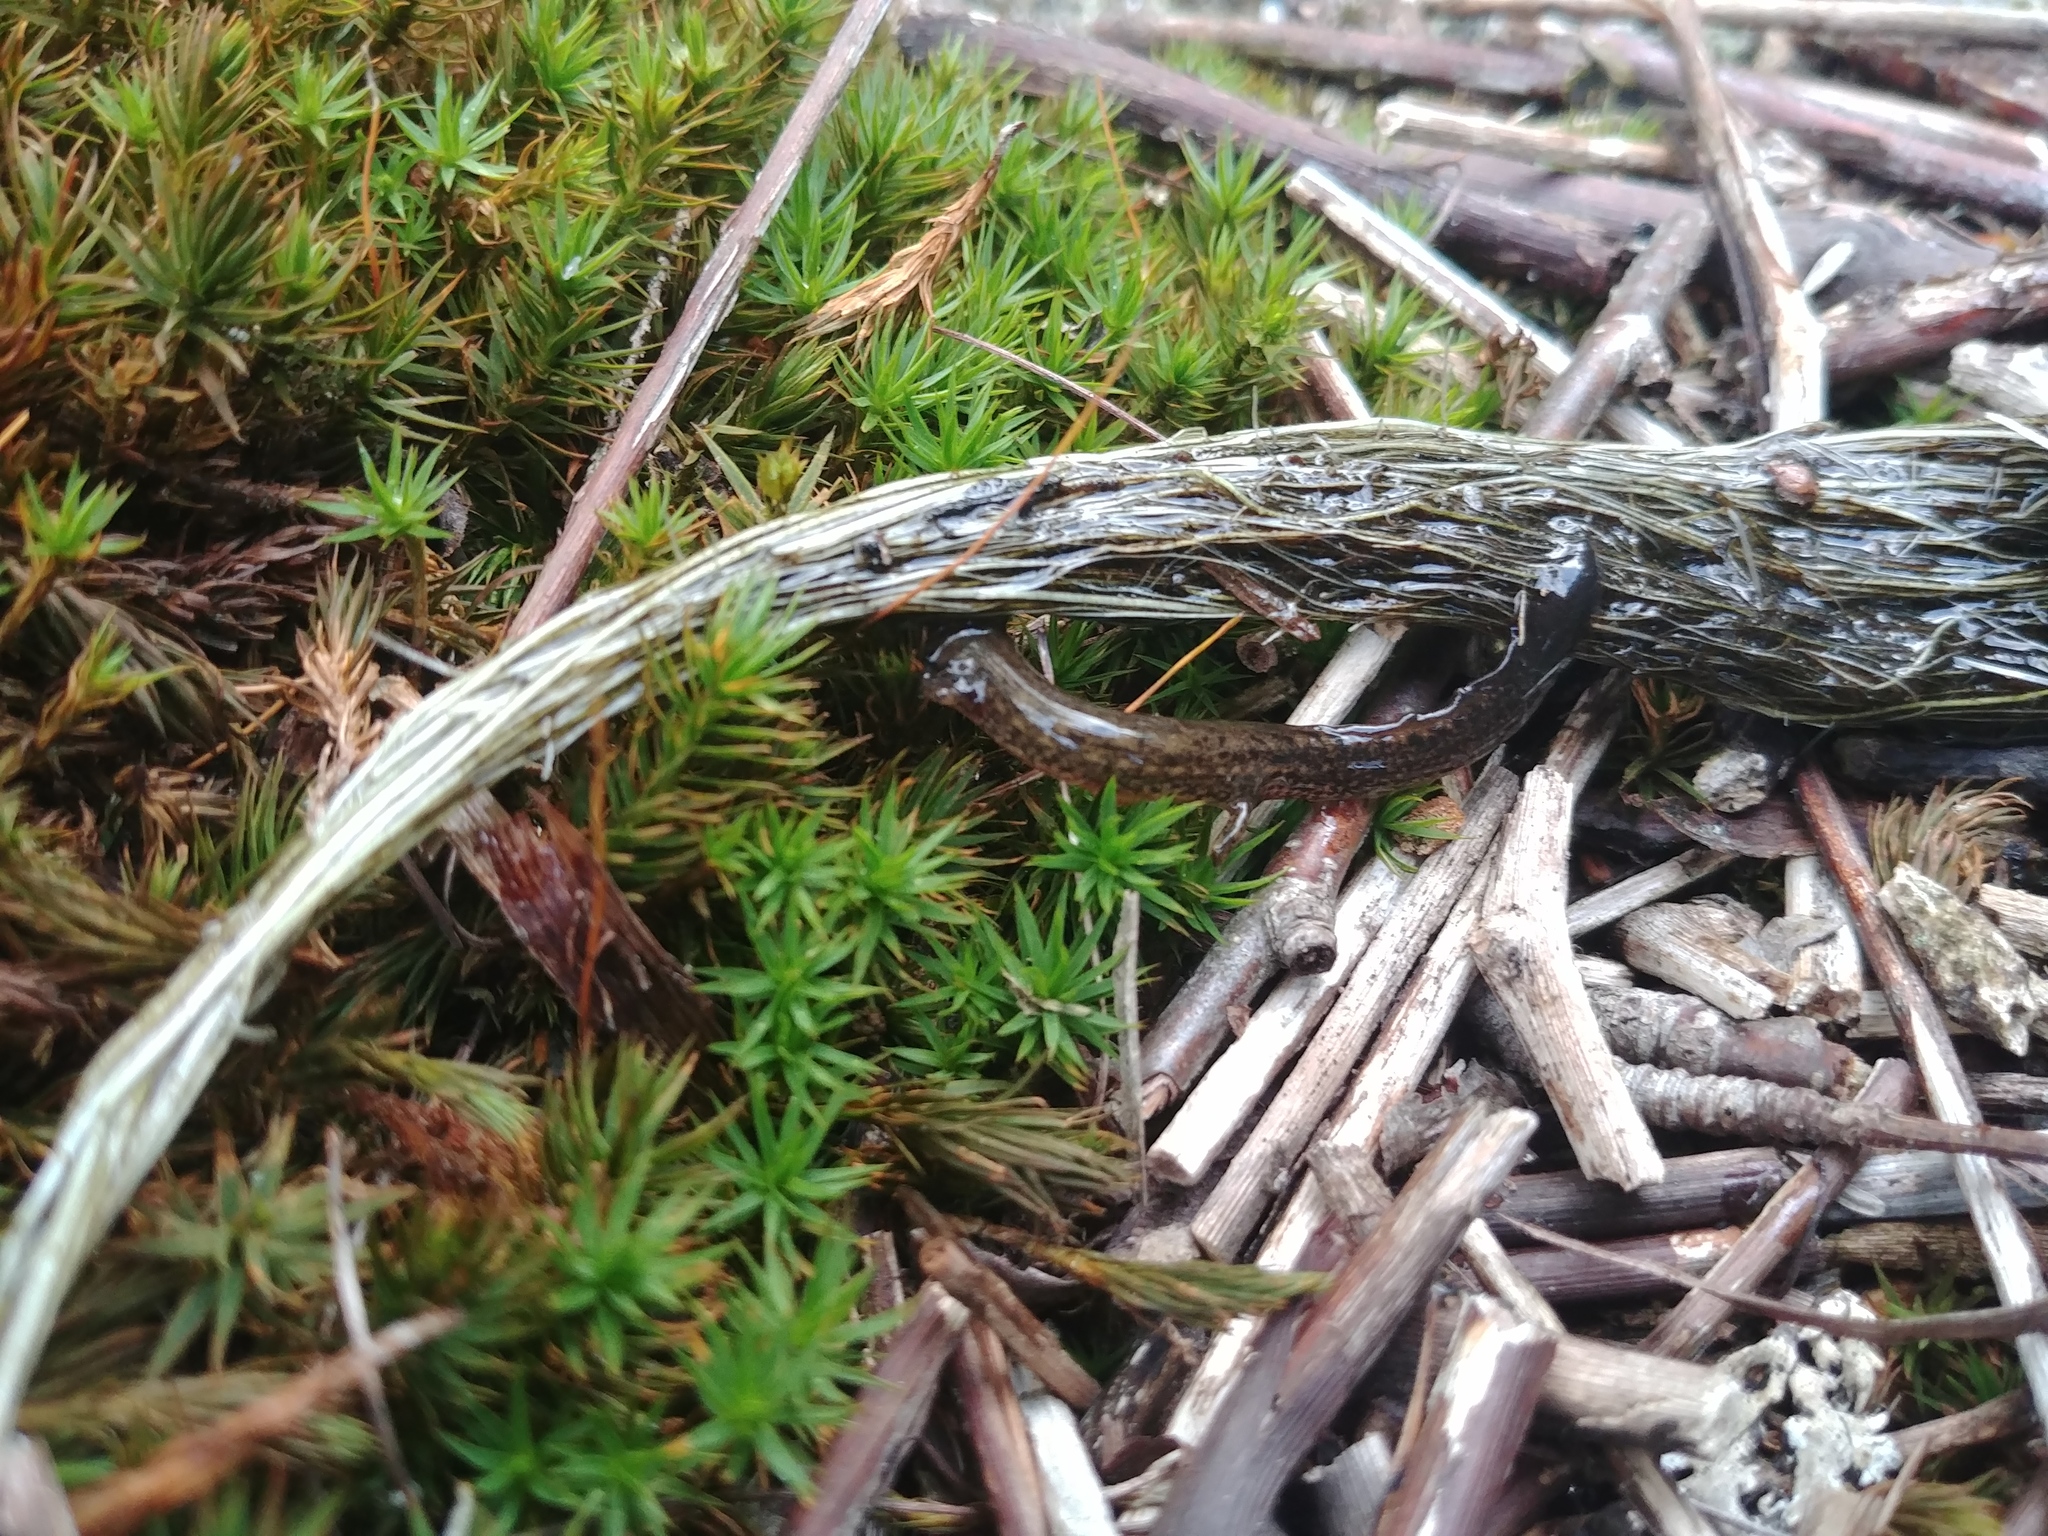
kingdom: Animalia
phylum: Chordata
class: Amphibia
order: Caudata
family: Plethodontidae
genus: Eurycea
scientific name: Eurycea bislineata
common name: Northern two-lined salamander
